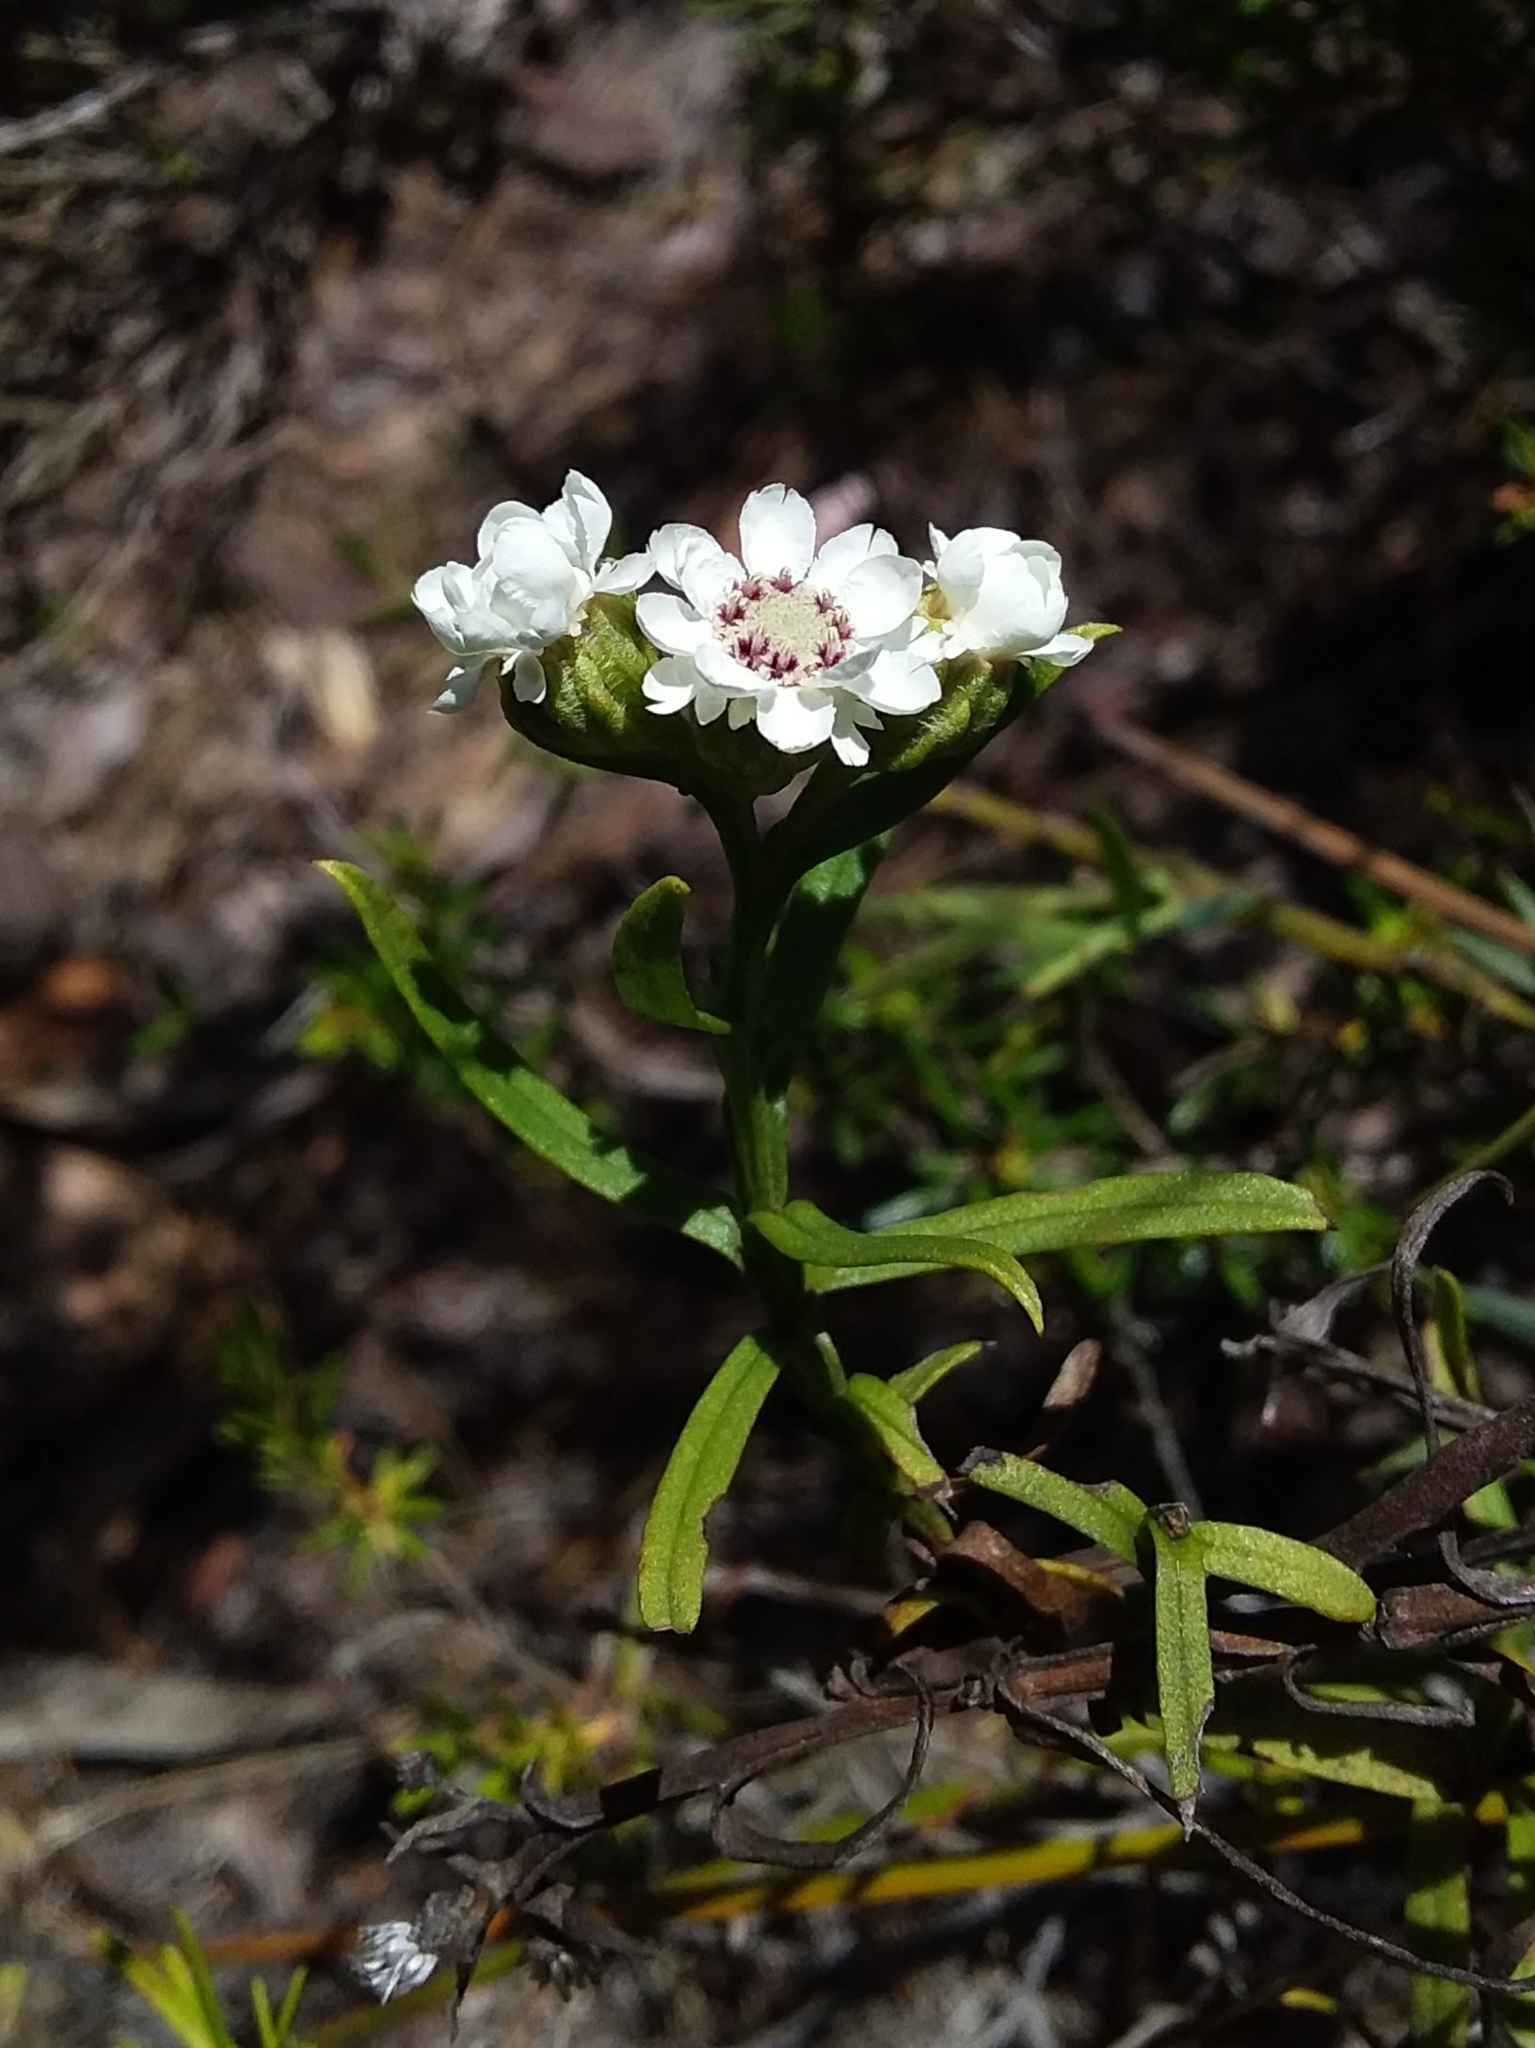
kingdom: Plantae
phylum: Tracheophyta
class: Magnoliopsida
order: Asterales
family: Asteraceae
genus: Ixodia
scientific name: Ixodia achillaeoides
